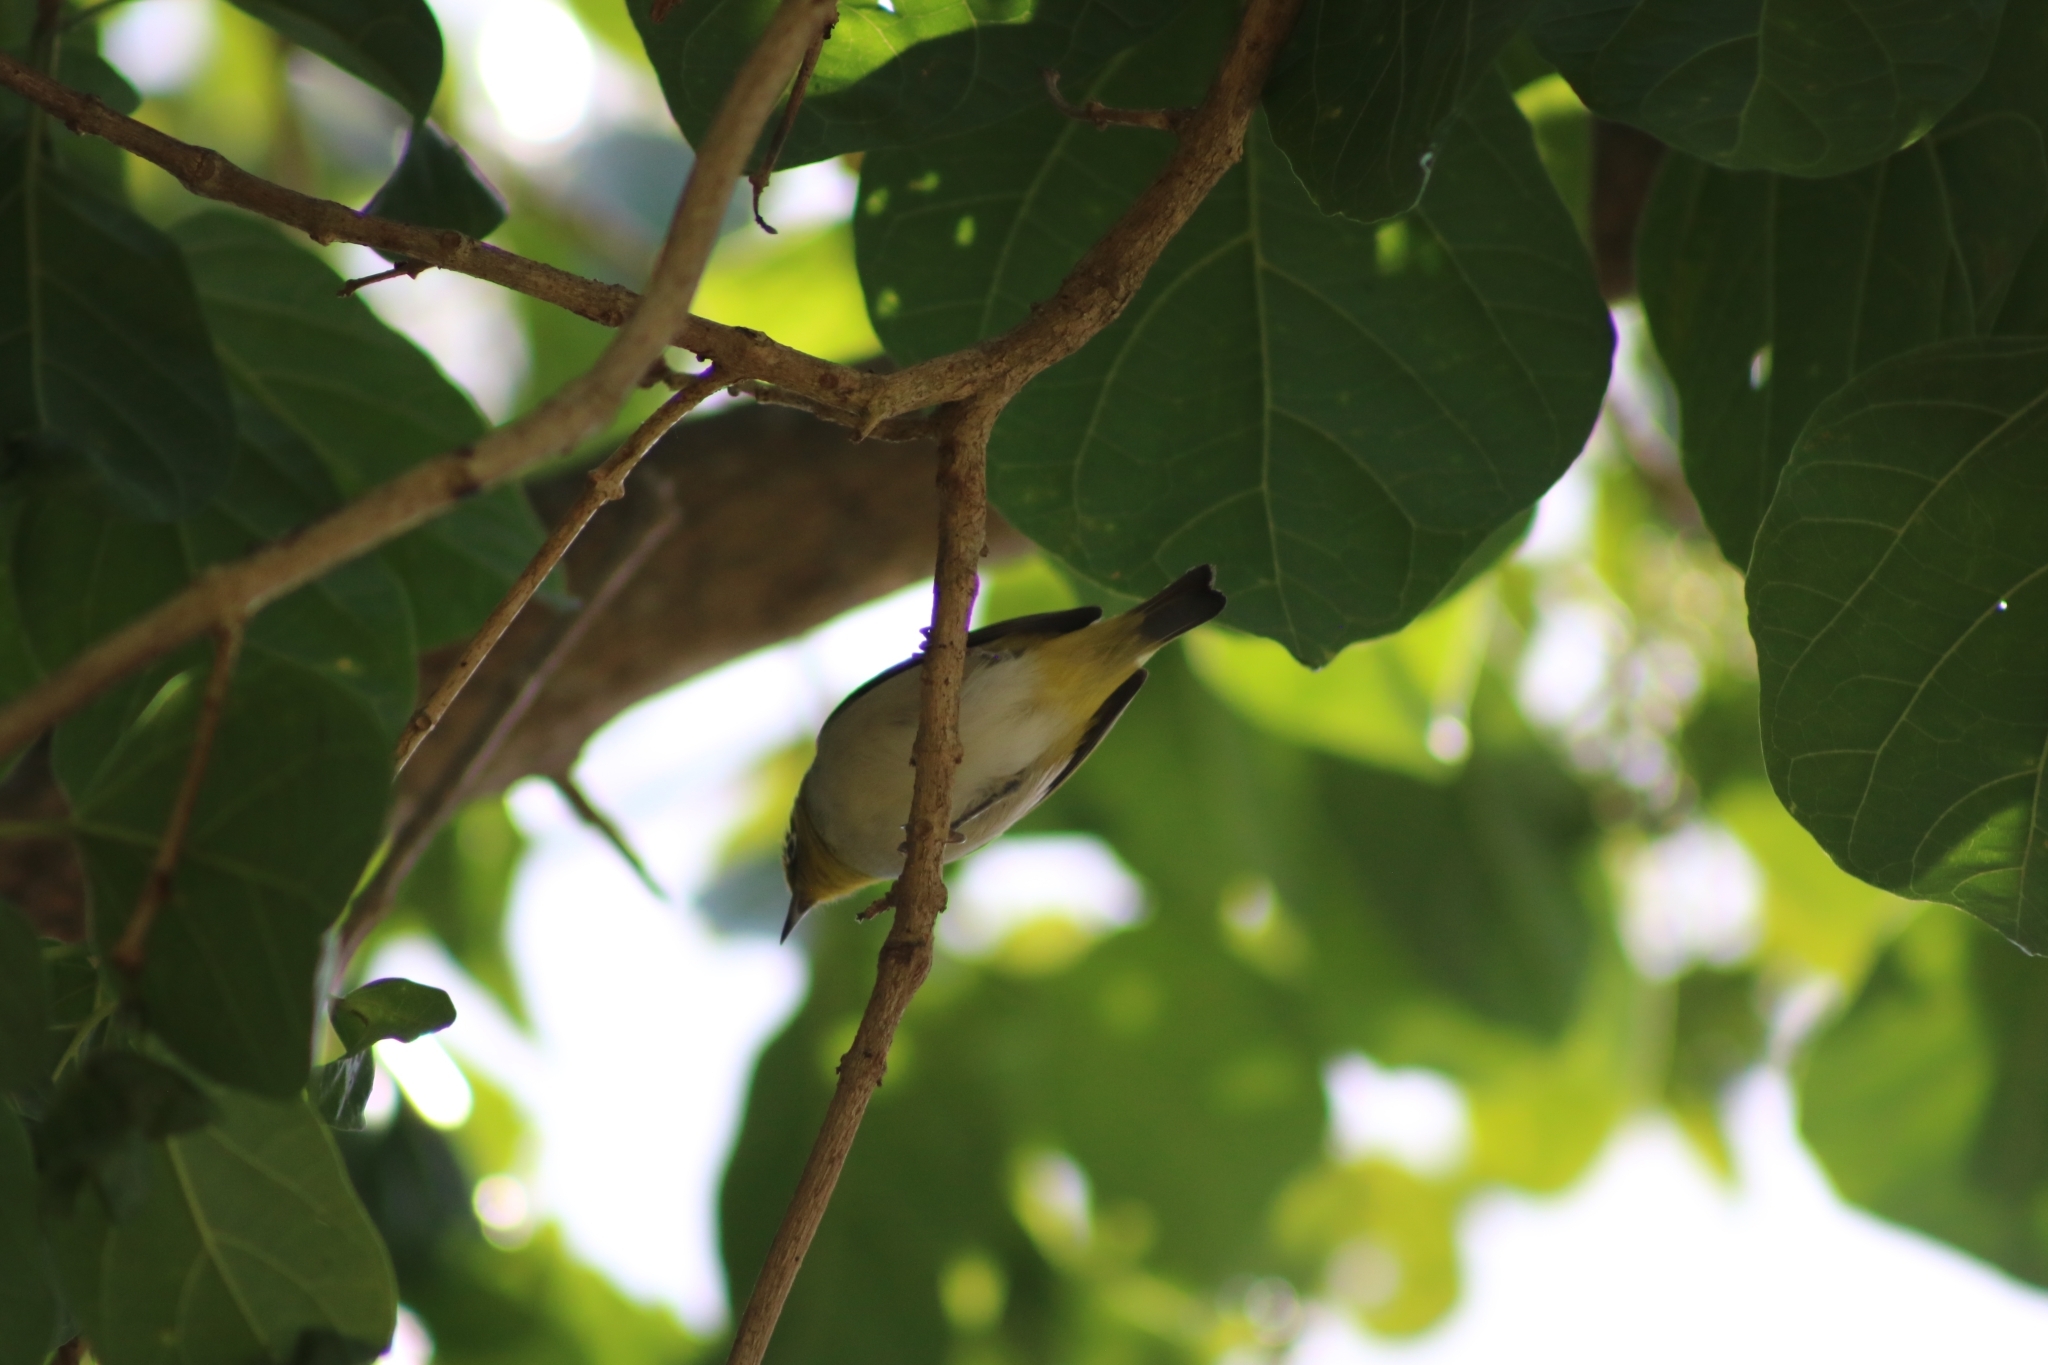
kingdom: Animalia
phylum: Chordata
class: Aves
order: Passeriformes
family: Zosteropidae
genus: Zosterops
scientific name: Zosterops lateralis
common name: Silvereye
